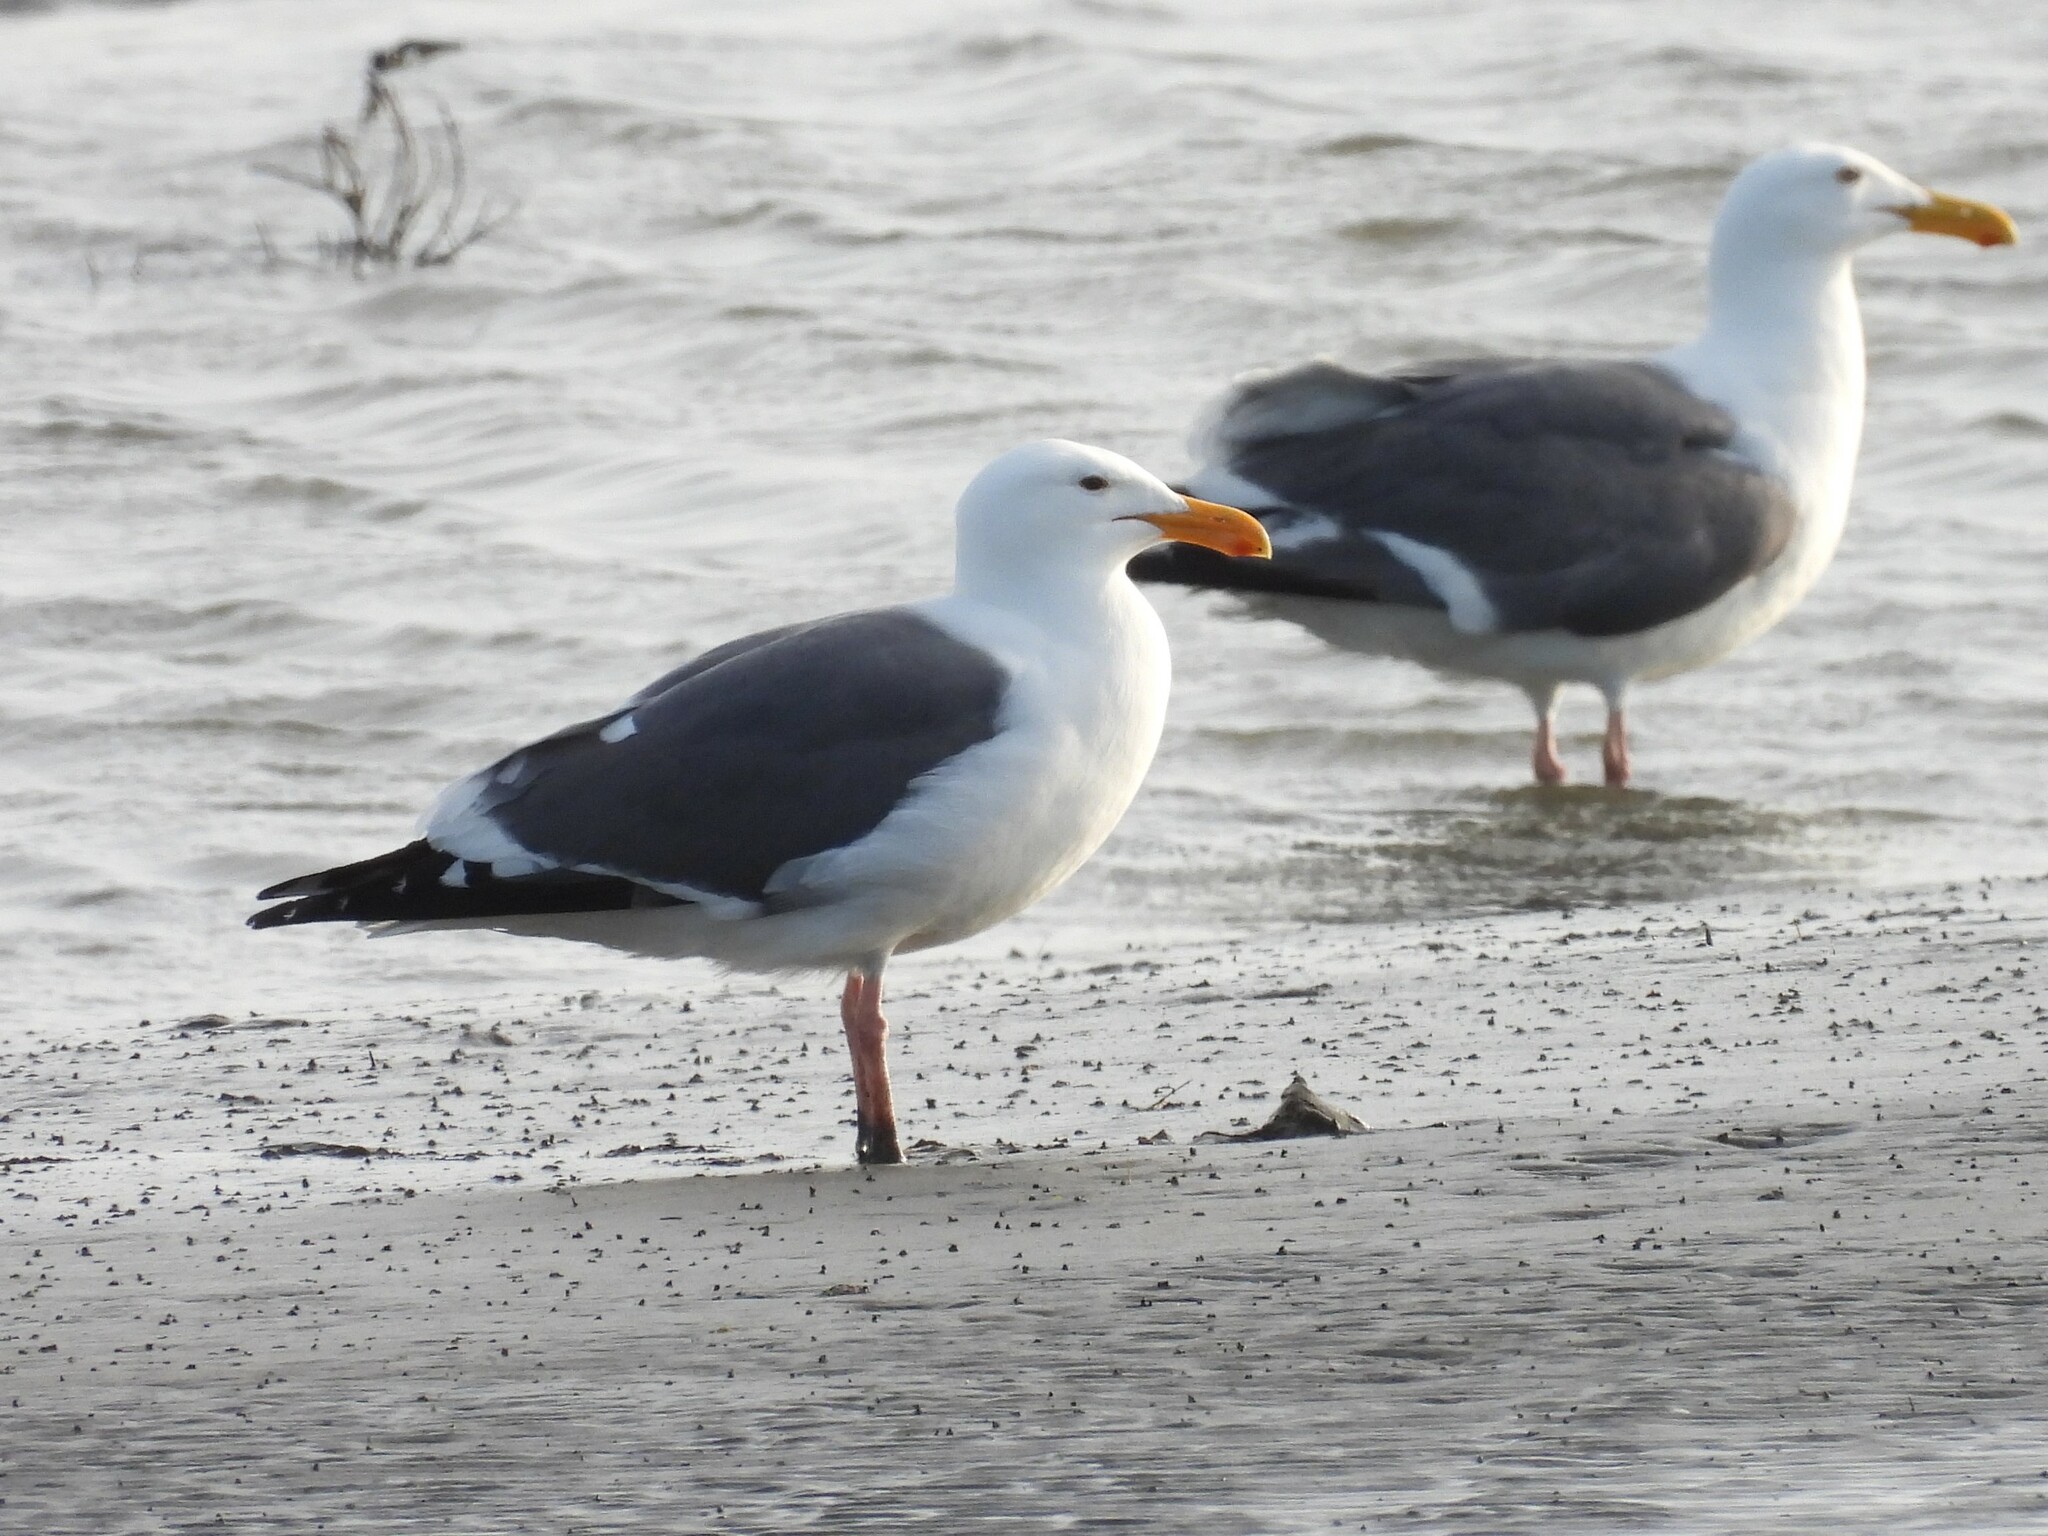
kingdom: Animalia
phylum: Chordata
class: Aves
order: Charadriiformes
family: Laridae
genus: Larus
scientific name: Larus occidentalis
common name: Western gull
